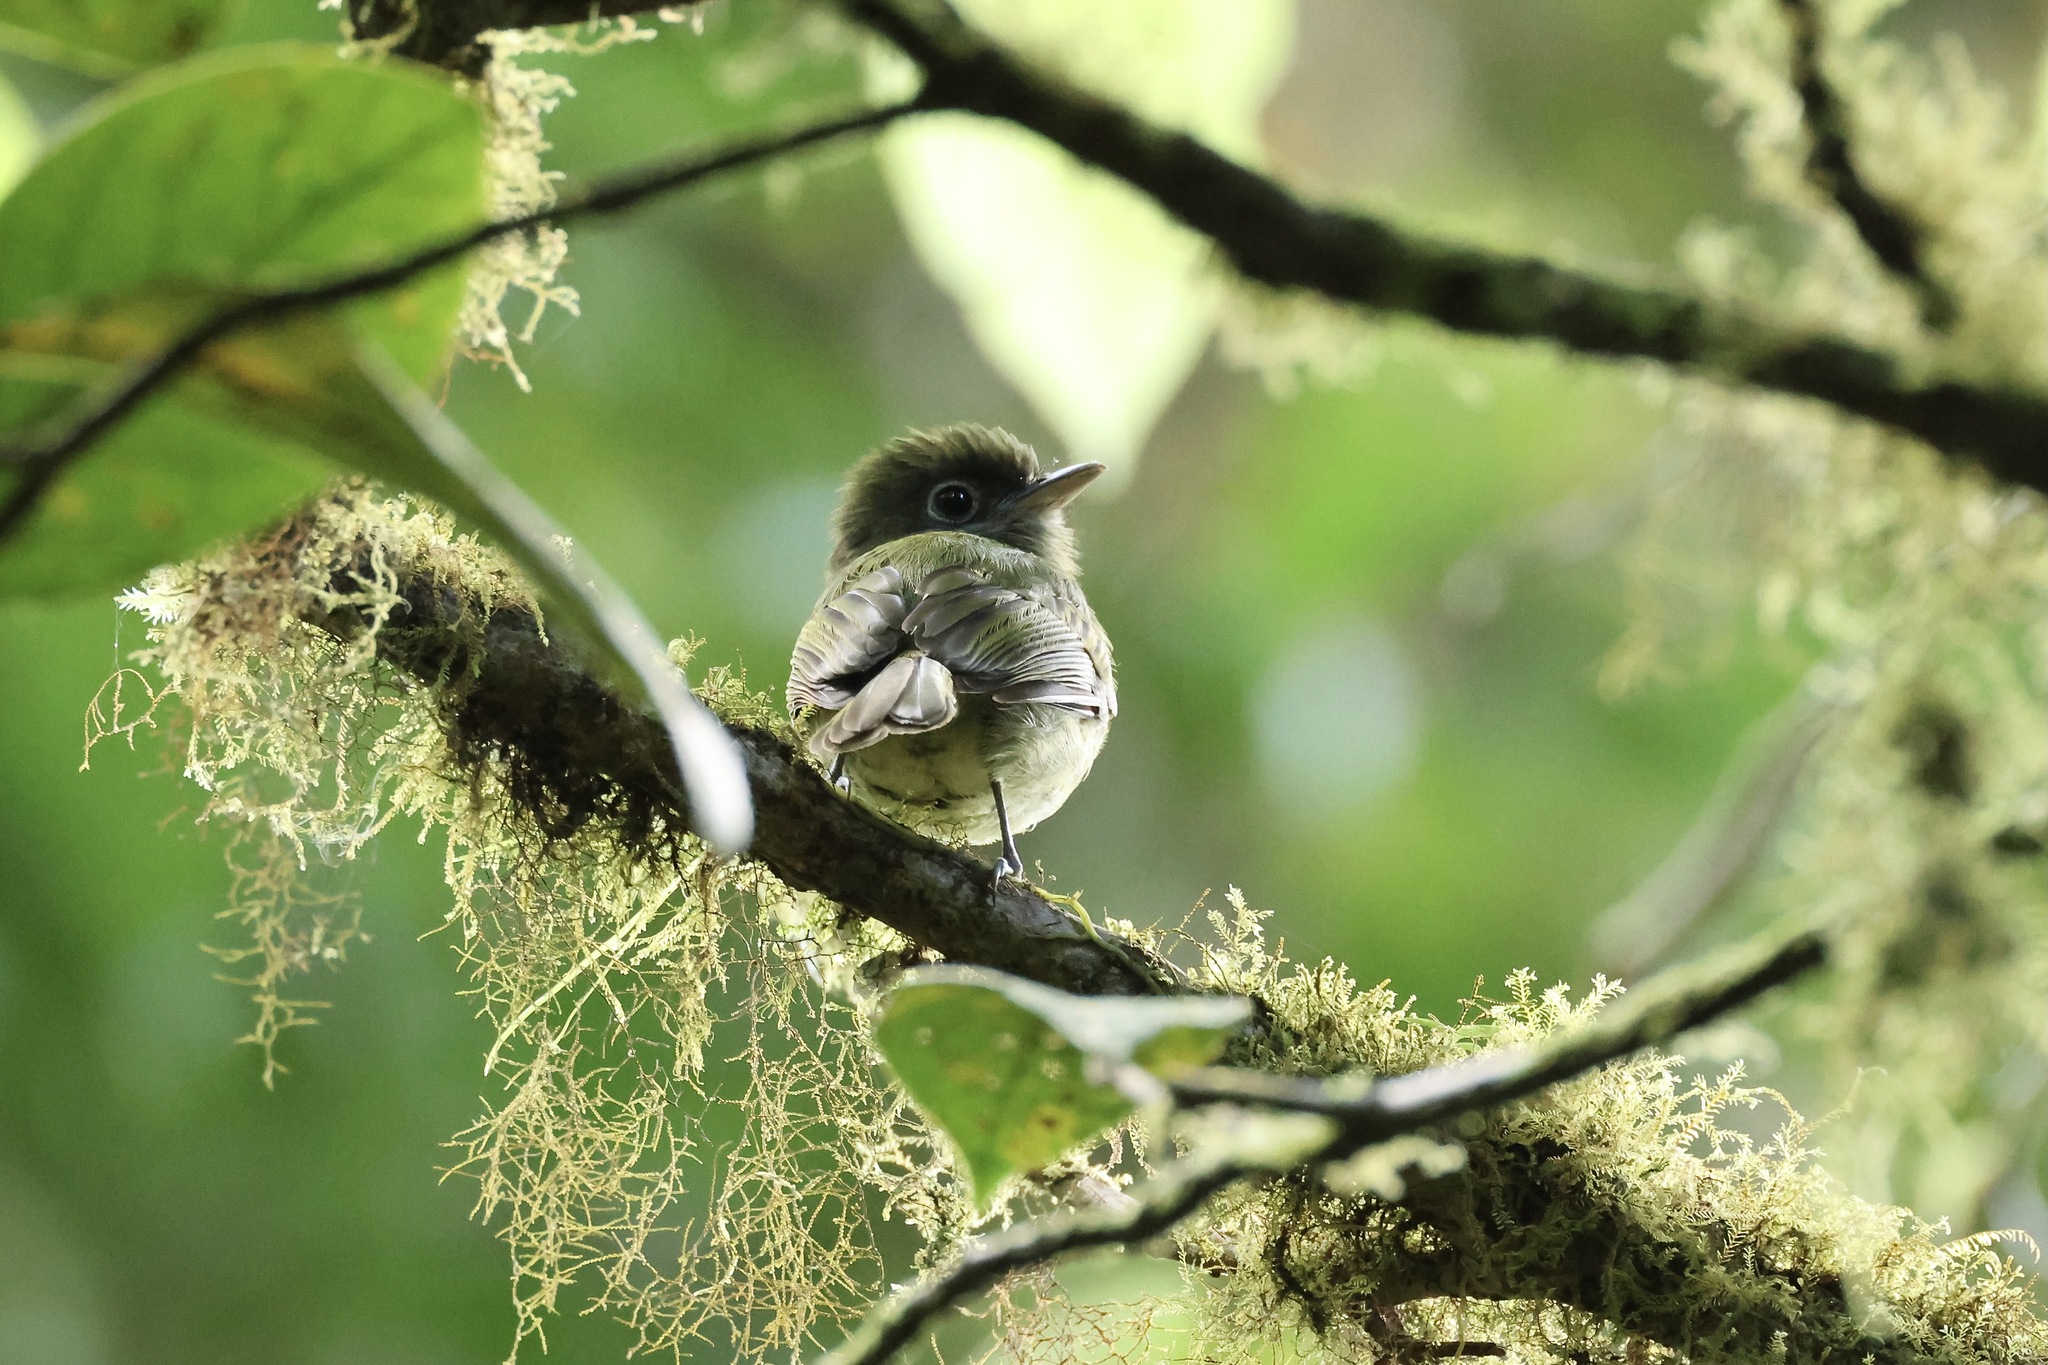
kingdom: Animalia
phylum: Chordata
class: Aves
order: Passeriformes
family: Tyrannidae
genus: Rhynchocyclus
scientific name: Rhynchocyclus brevirostris
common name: Eye-ringed flatbill
